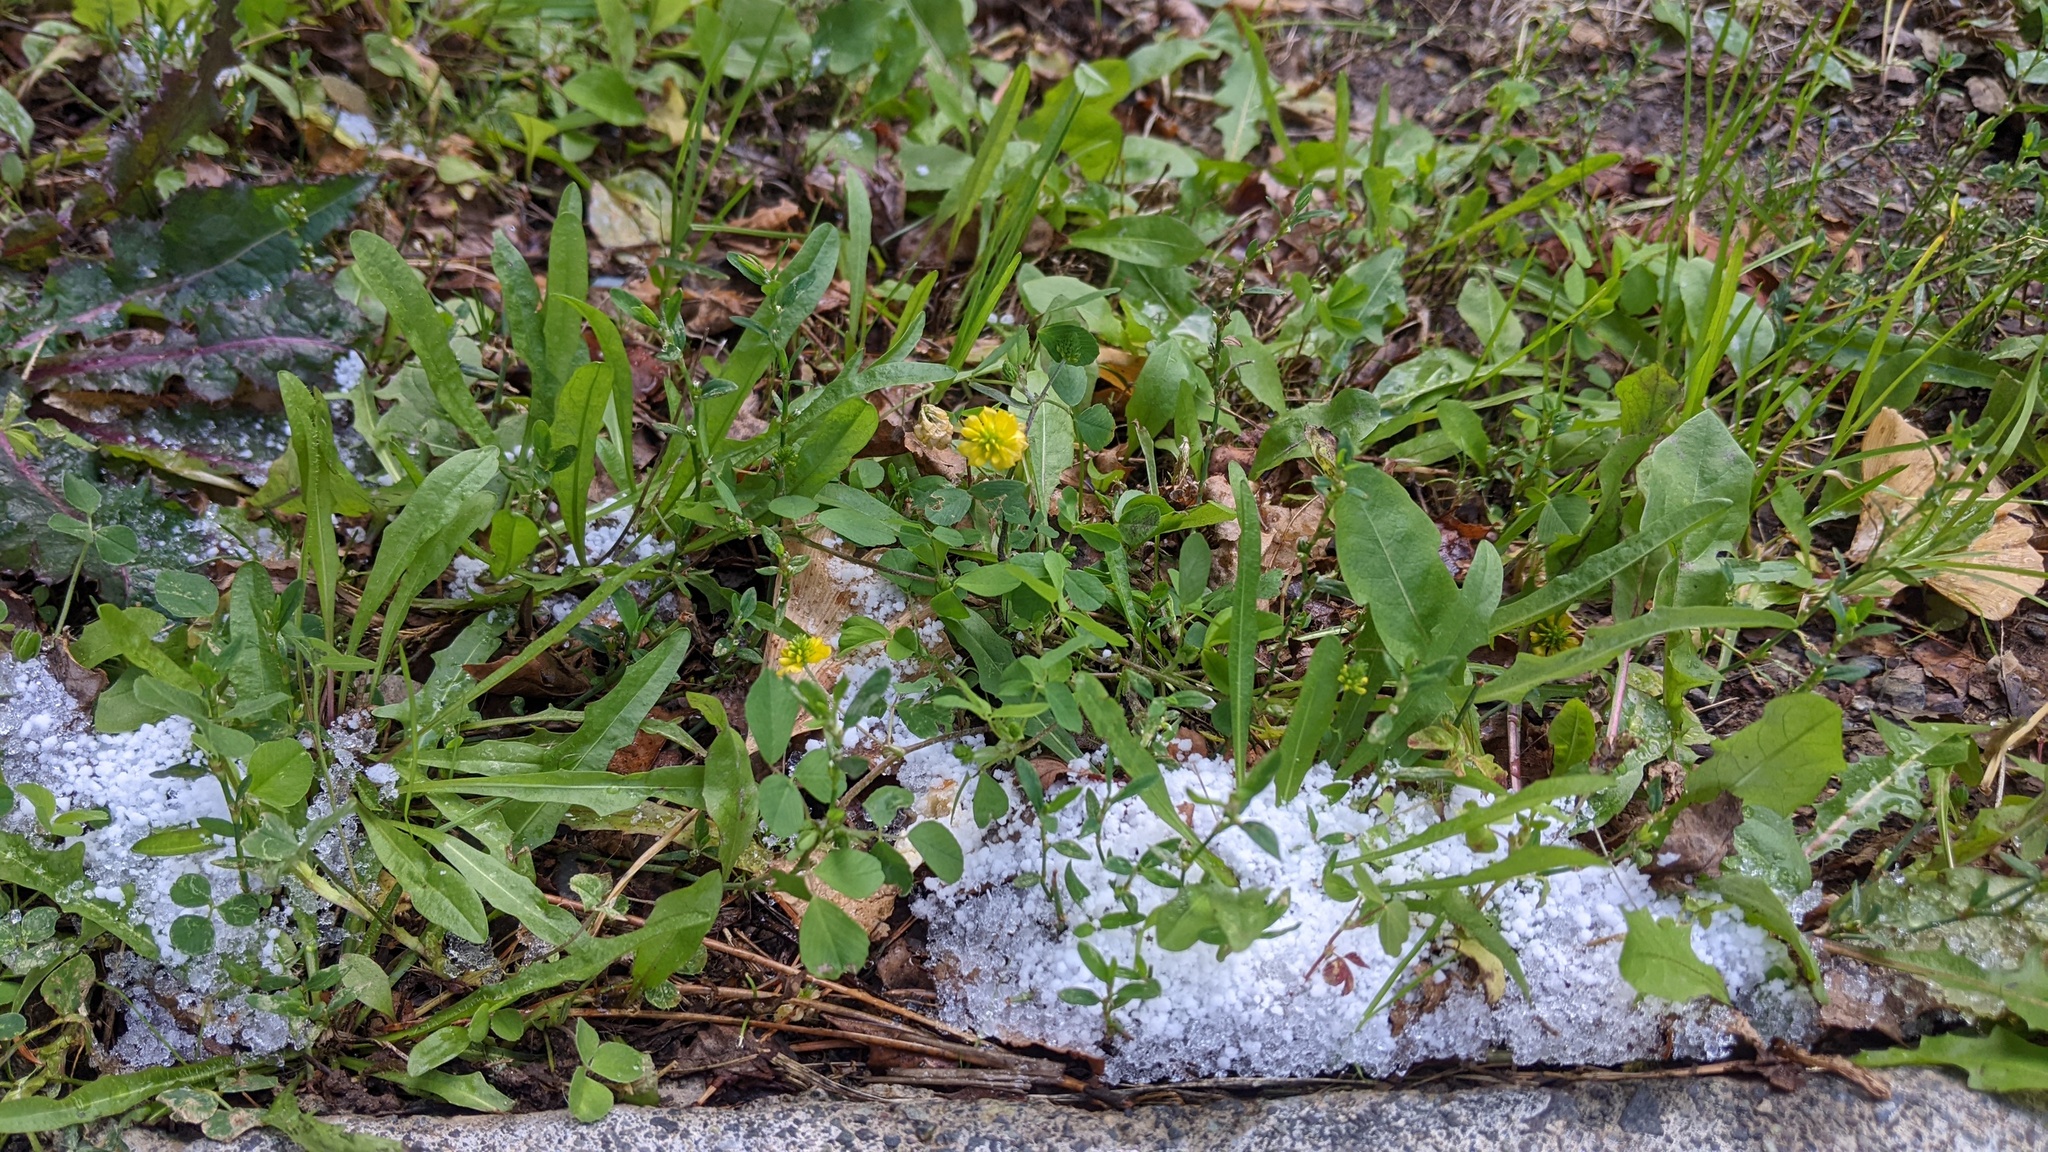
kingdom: Plantae
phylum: Tracheophyta
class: Magnoliopsida
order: Fabales
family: Fabaceae
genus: Trifolium
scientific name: Trifolium campestre
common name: Field clover
